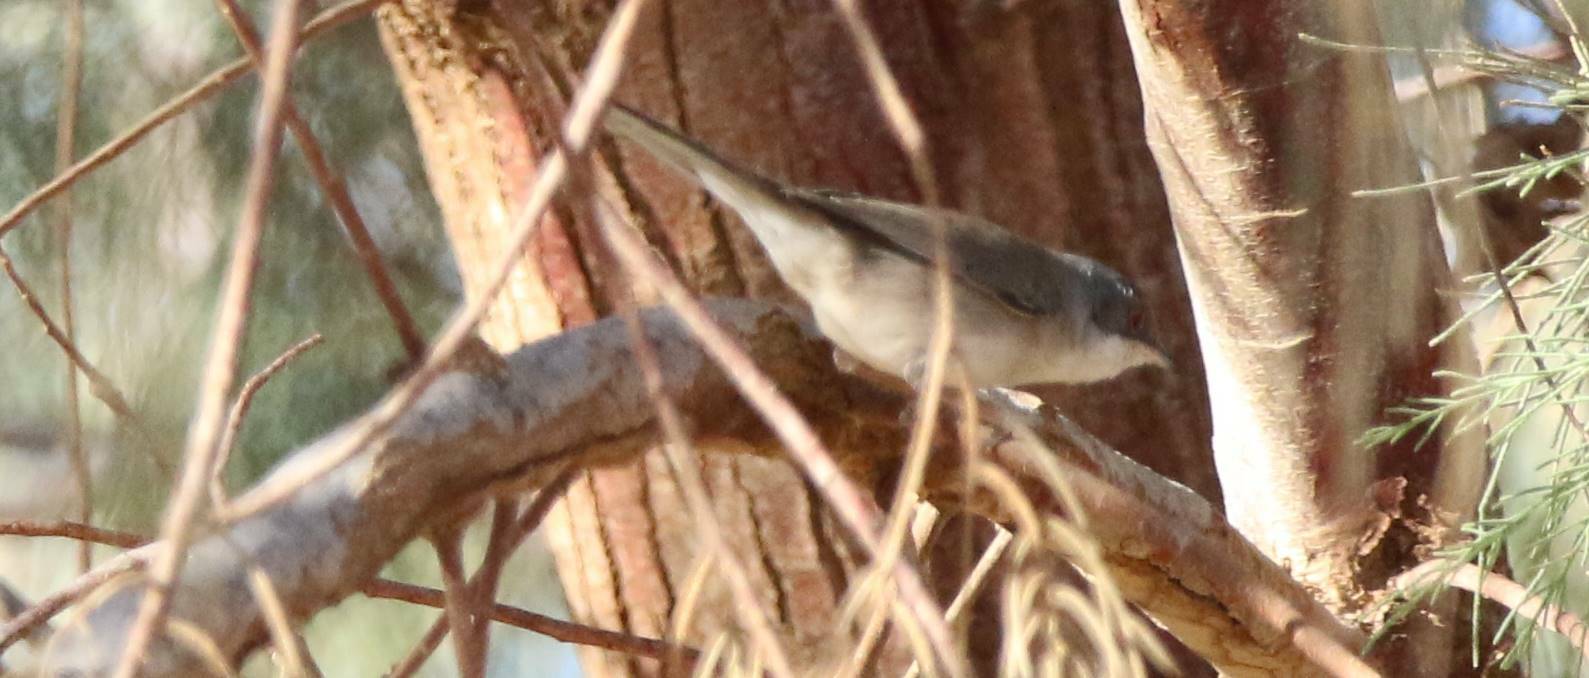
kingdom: Animalia
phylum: Chordata
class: Aves
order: Passeriformes
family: Sylviidae
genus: Curruca
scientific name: Curruca melanocephala
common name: Sardinian warbler
